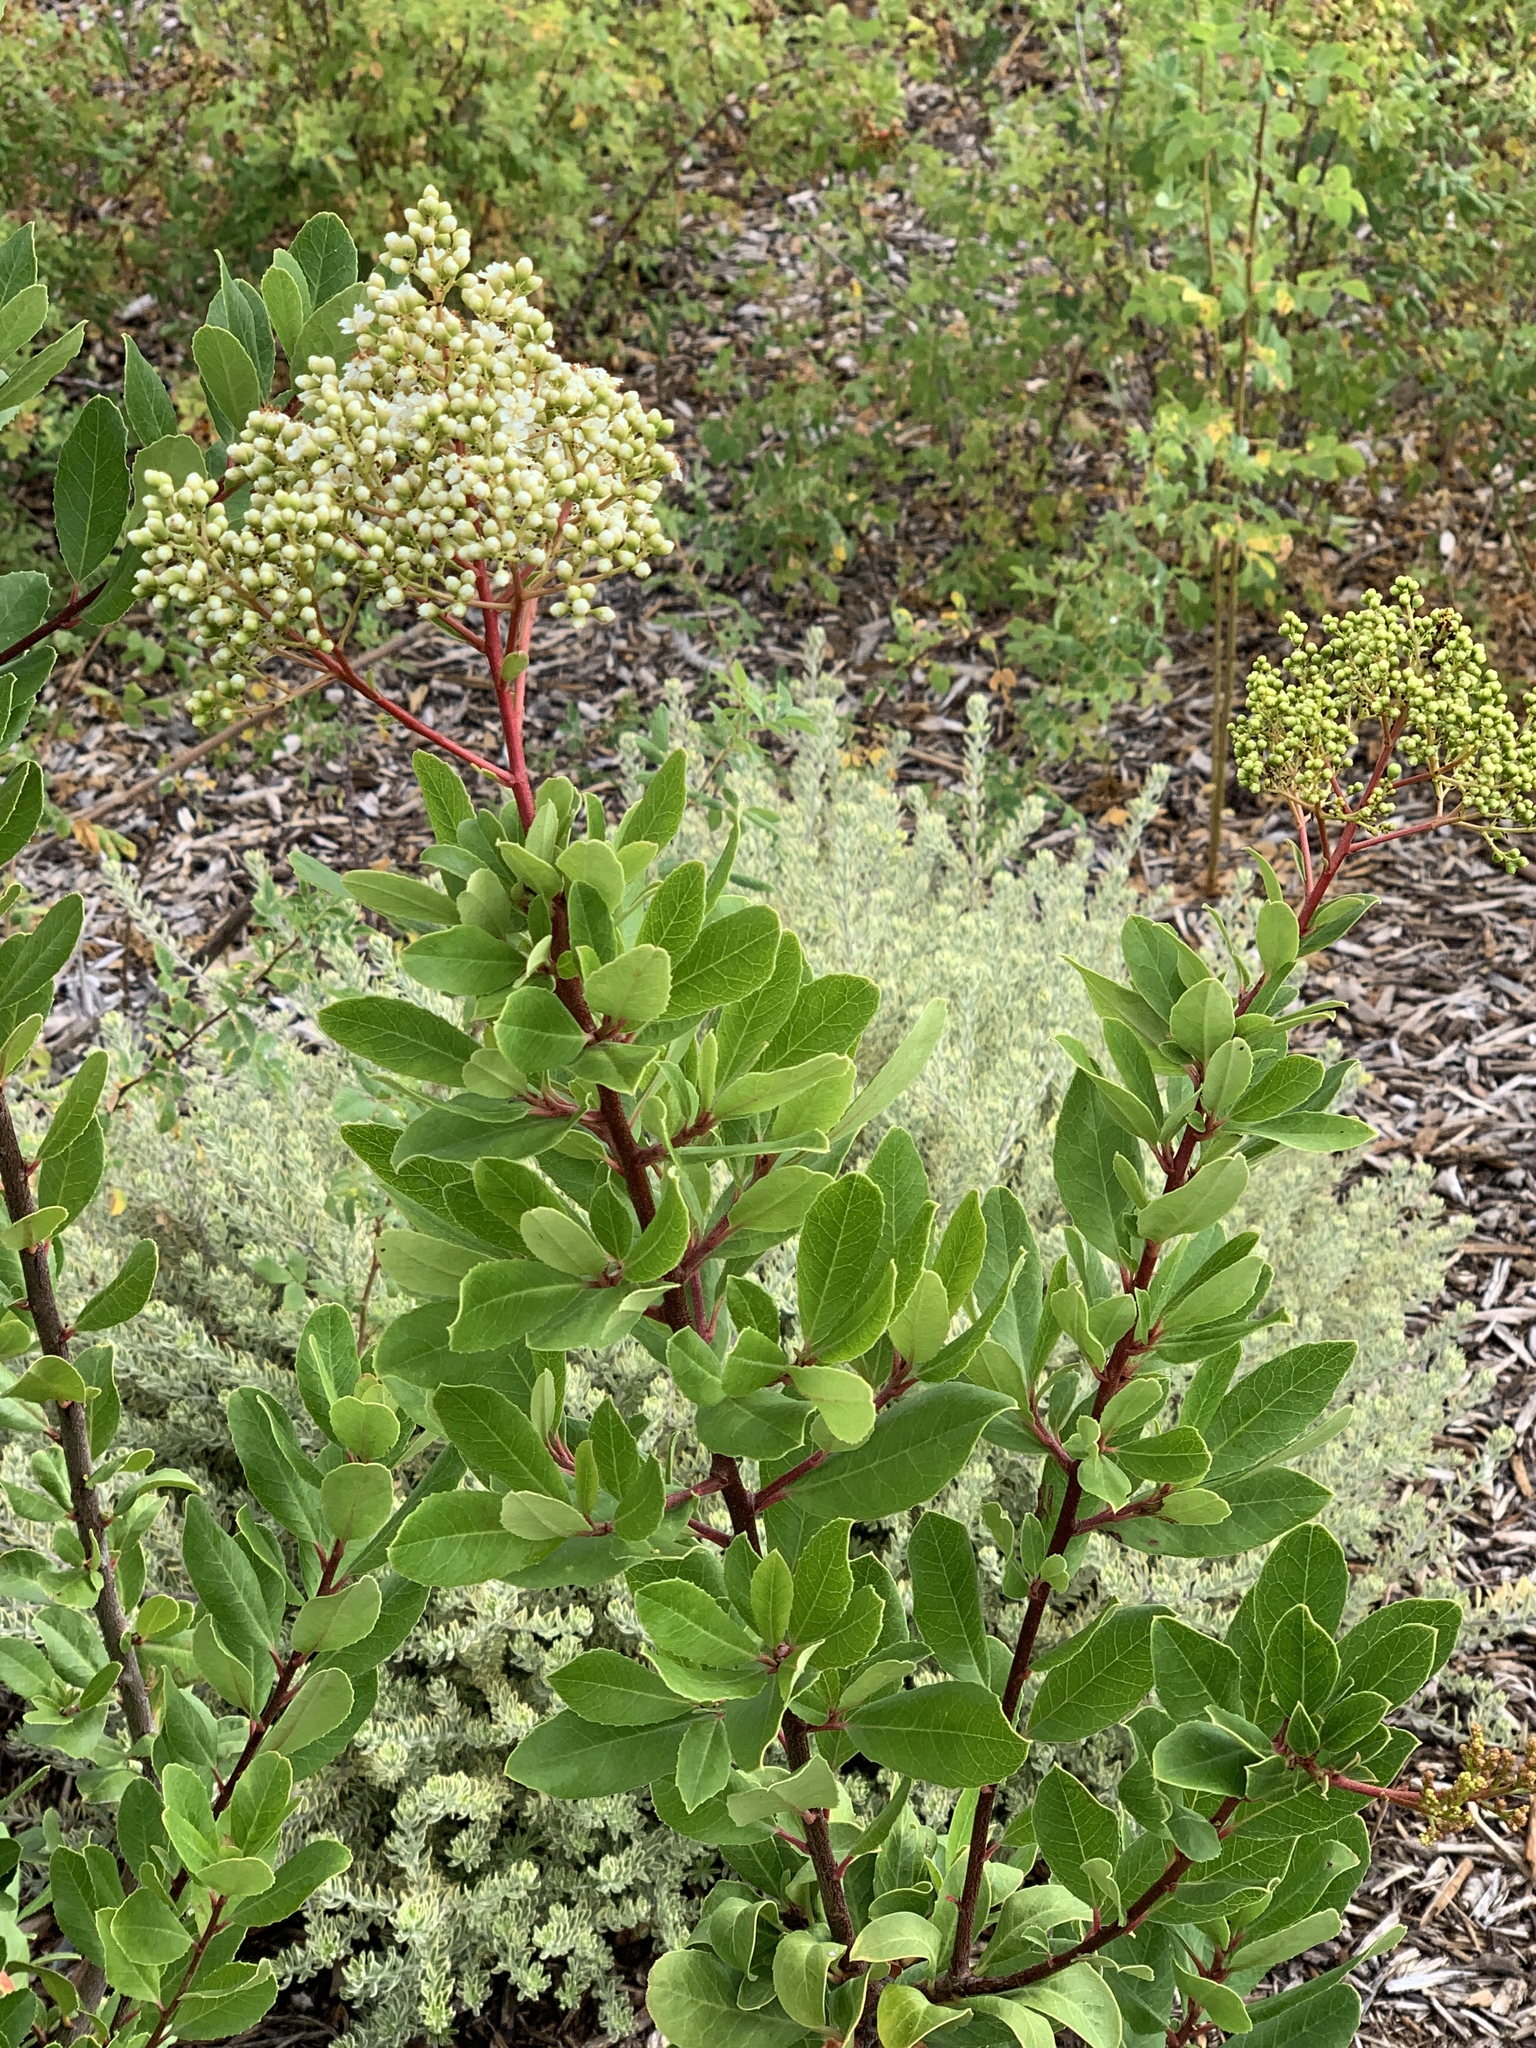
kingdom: Plantae
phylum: Tracheophyta
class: Magnoliopsida
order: Rosales
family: Rosaceae
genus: Heteromeles
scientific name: Heteromeles arbutifolia
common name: California-holly
